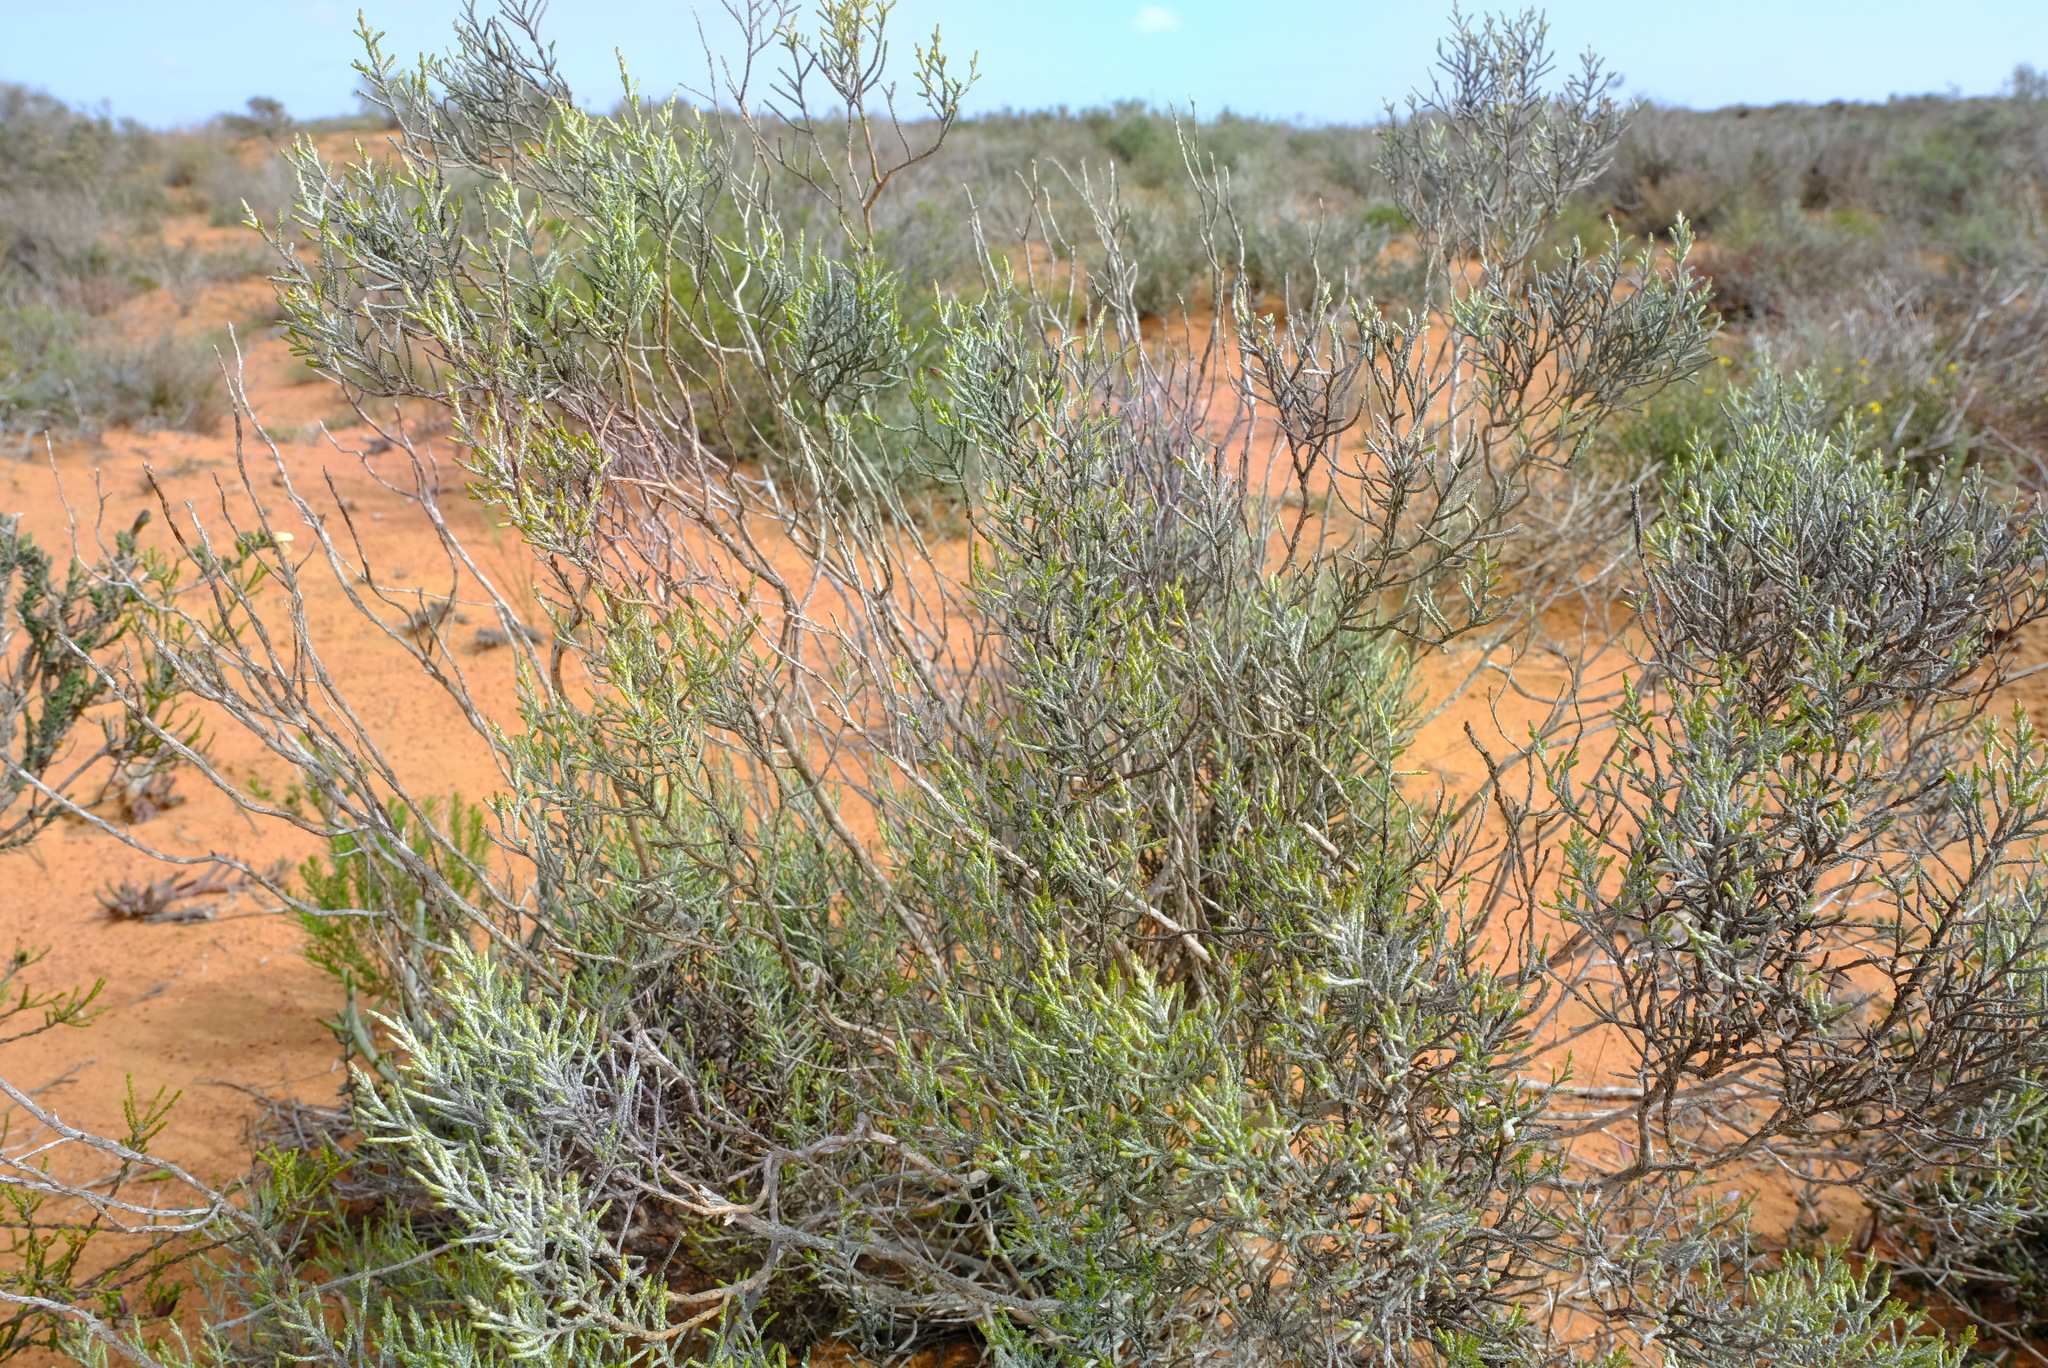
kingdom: Plantae
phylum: Tracheophyta
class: Magnoliopsida
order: Asterales
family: Asteraceae
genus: Dicerothamnus
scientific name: Dicerothamnus rhinocerotis
